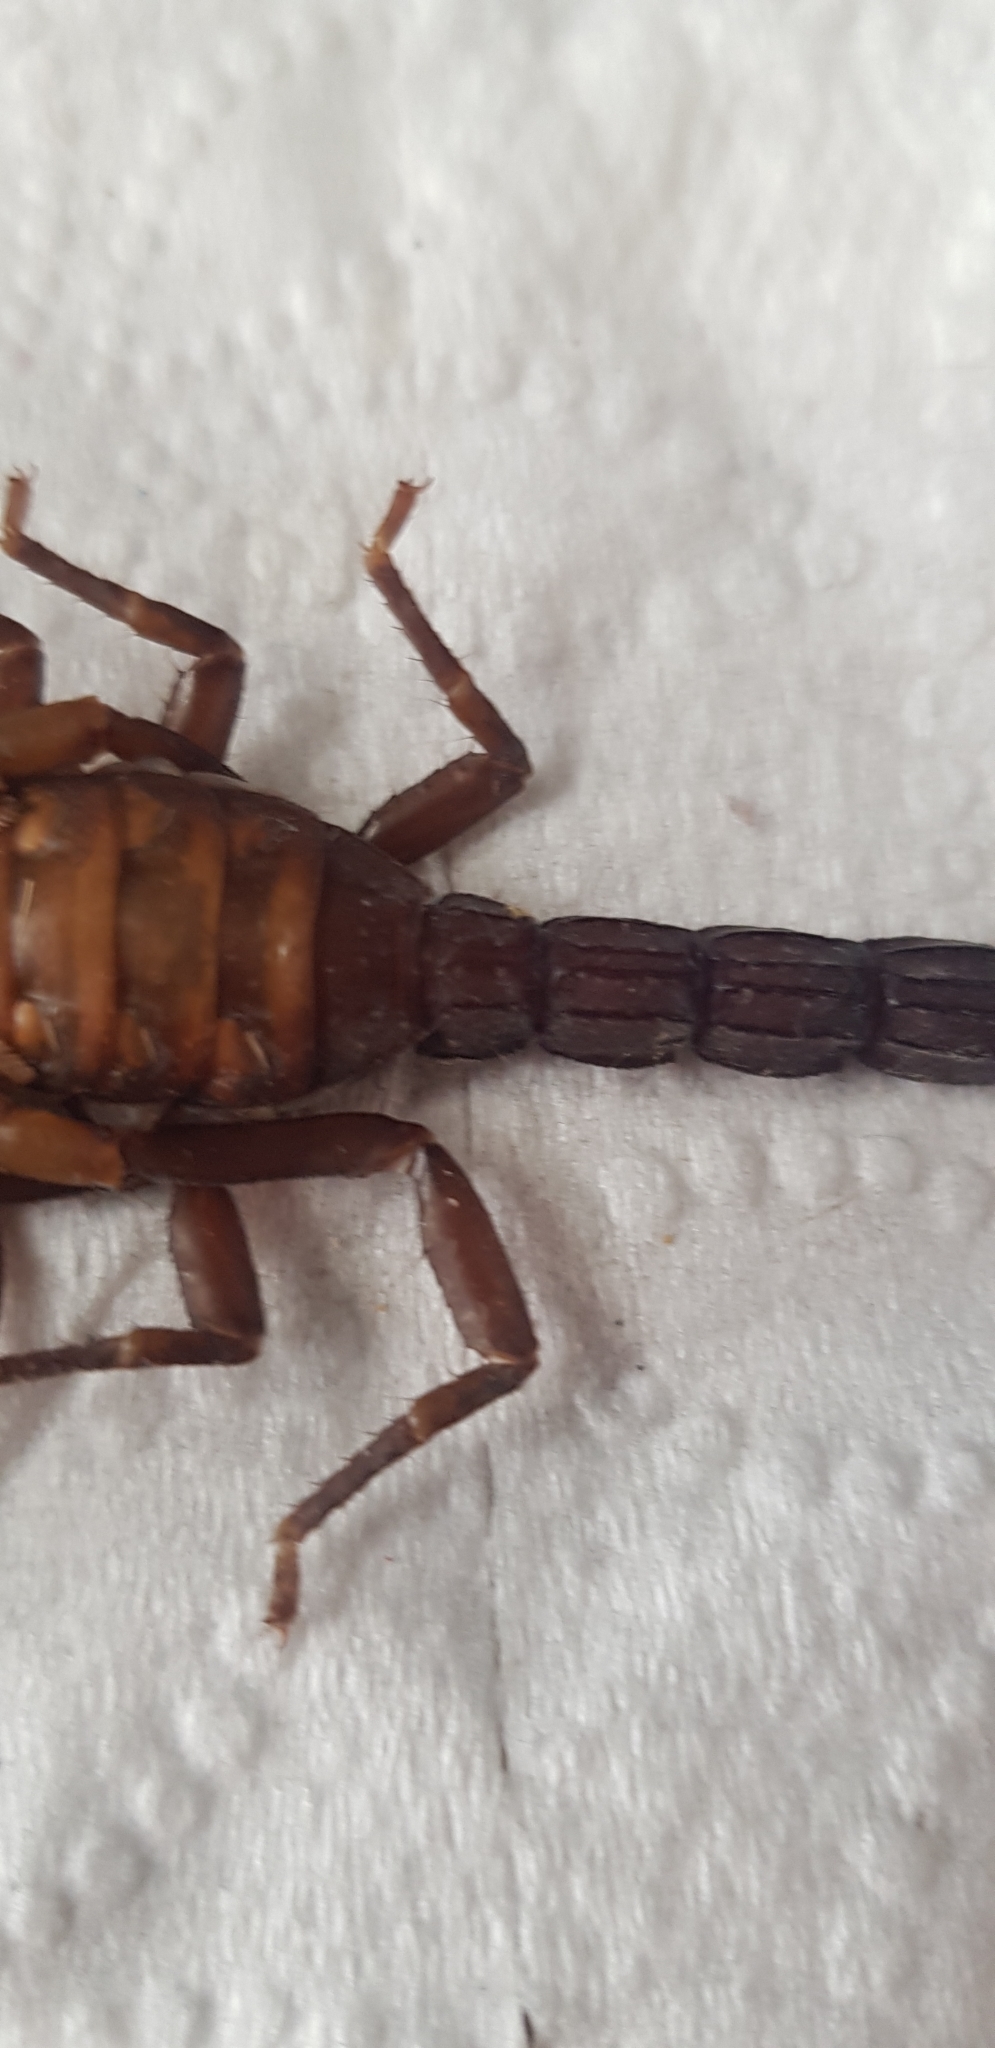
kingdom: Animalia
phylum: Arthropoda
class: Arachnida
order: Scorpiones
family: Vaejovidae
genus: Thorellius
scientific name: Thorellius wixarika
